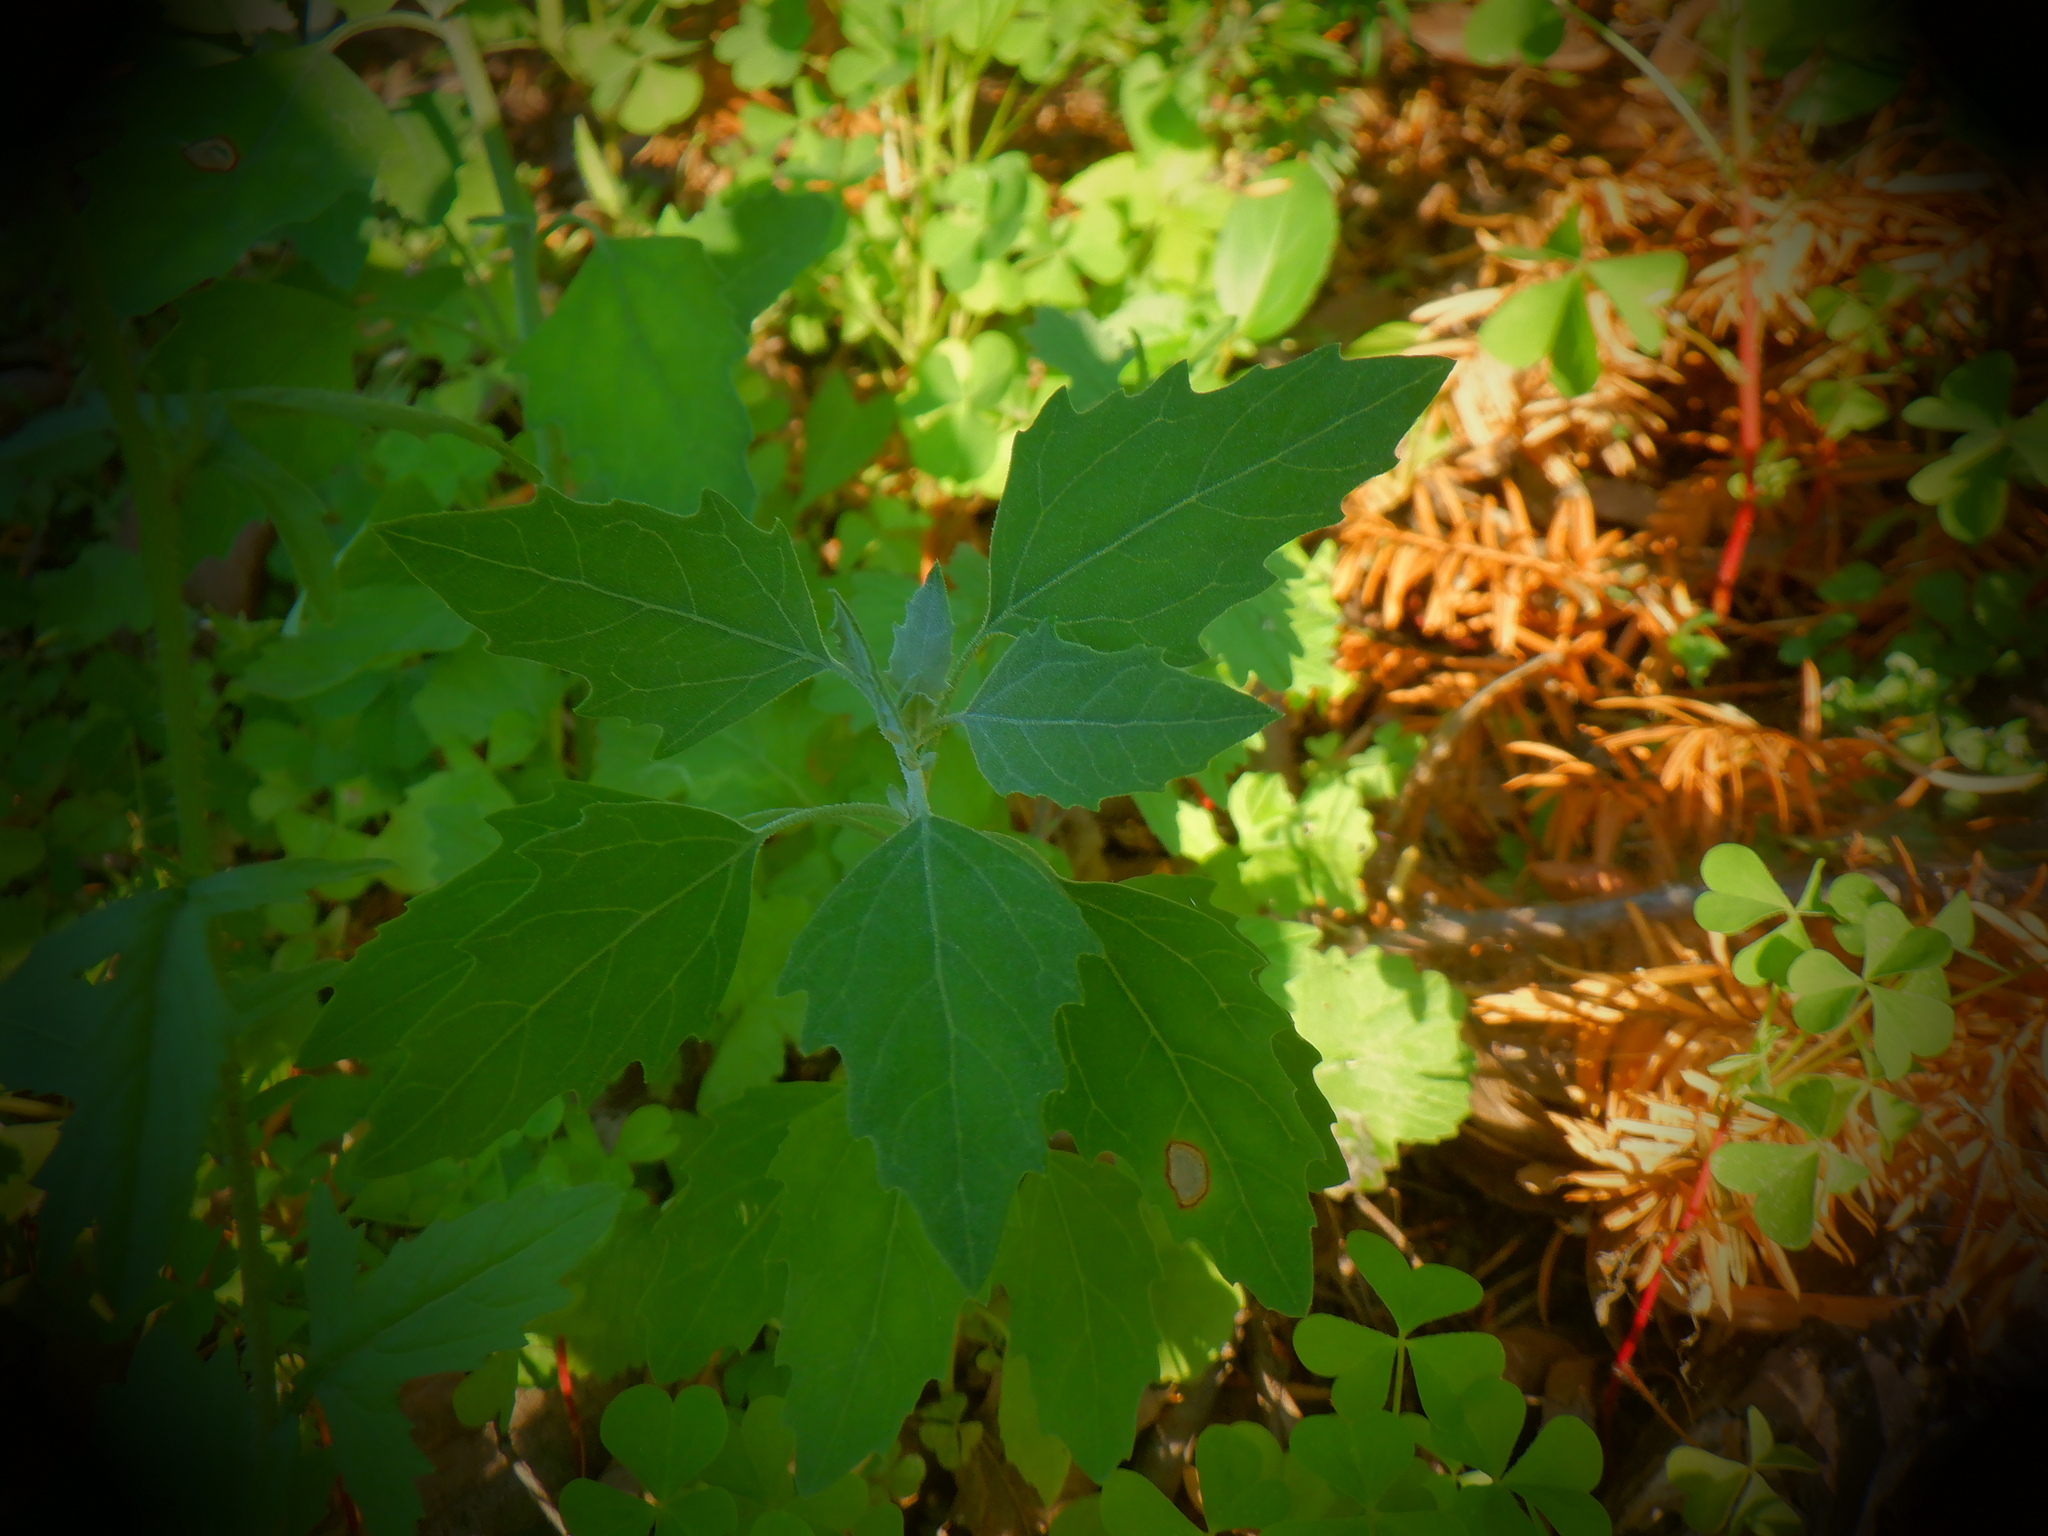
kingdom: Plantae
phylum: Tracheophyta
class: Magnoliopsida
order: Caryophyllales
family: Amaranthaceae
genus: Chenopodium
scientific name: Chenopodium album
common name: Fat-hen
